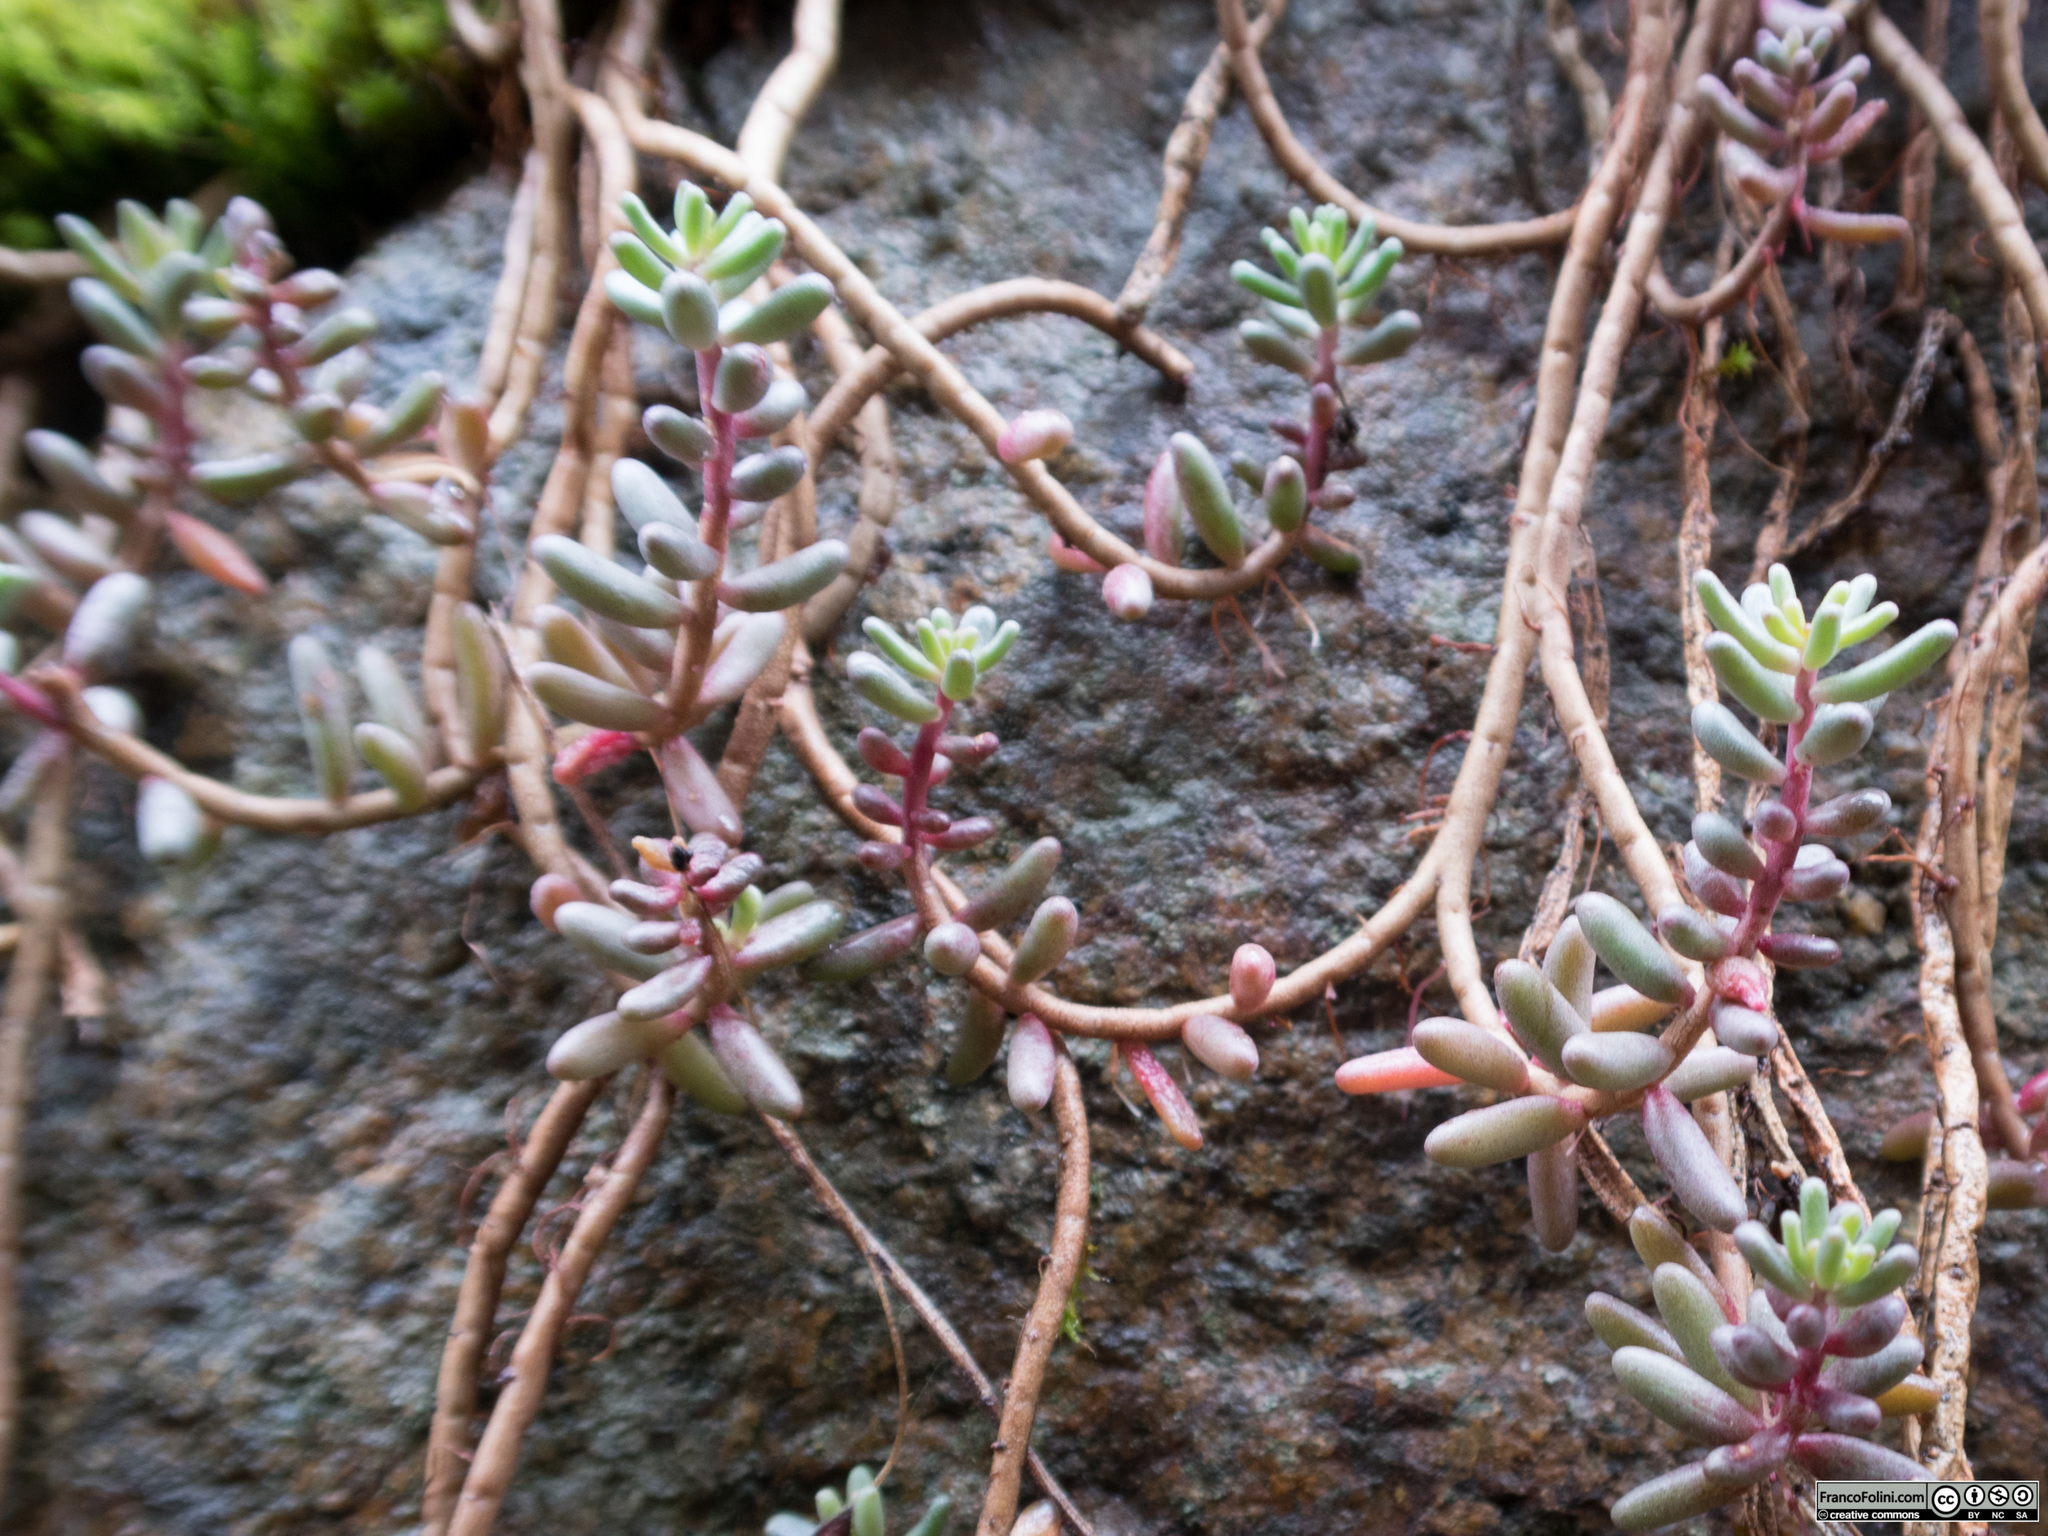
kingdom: Plantae
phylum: Tracheophyta
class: Magnoliopsida
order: Saxifragales
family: Crassulaceae
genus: Sedum
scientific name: Sedum album
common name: White stonecrop
